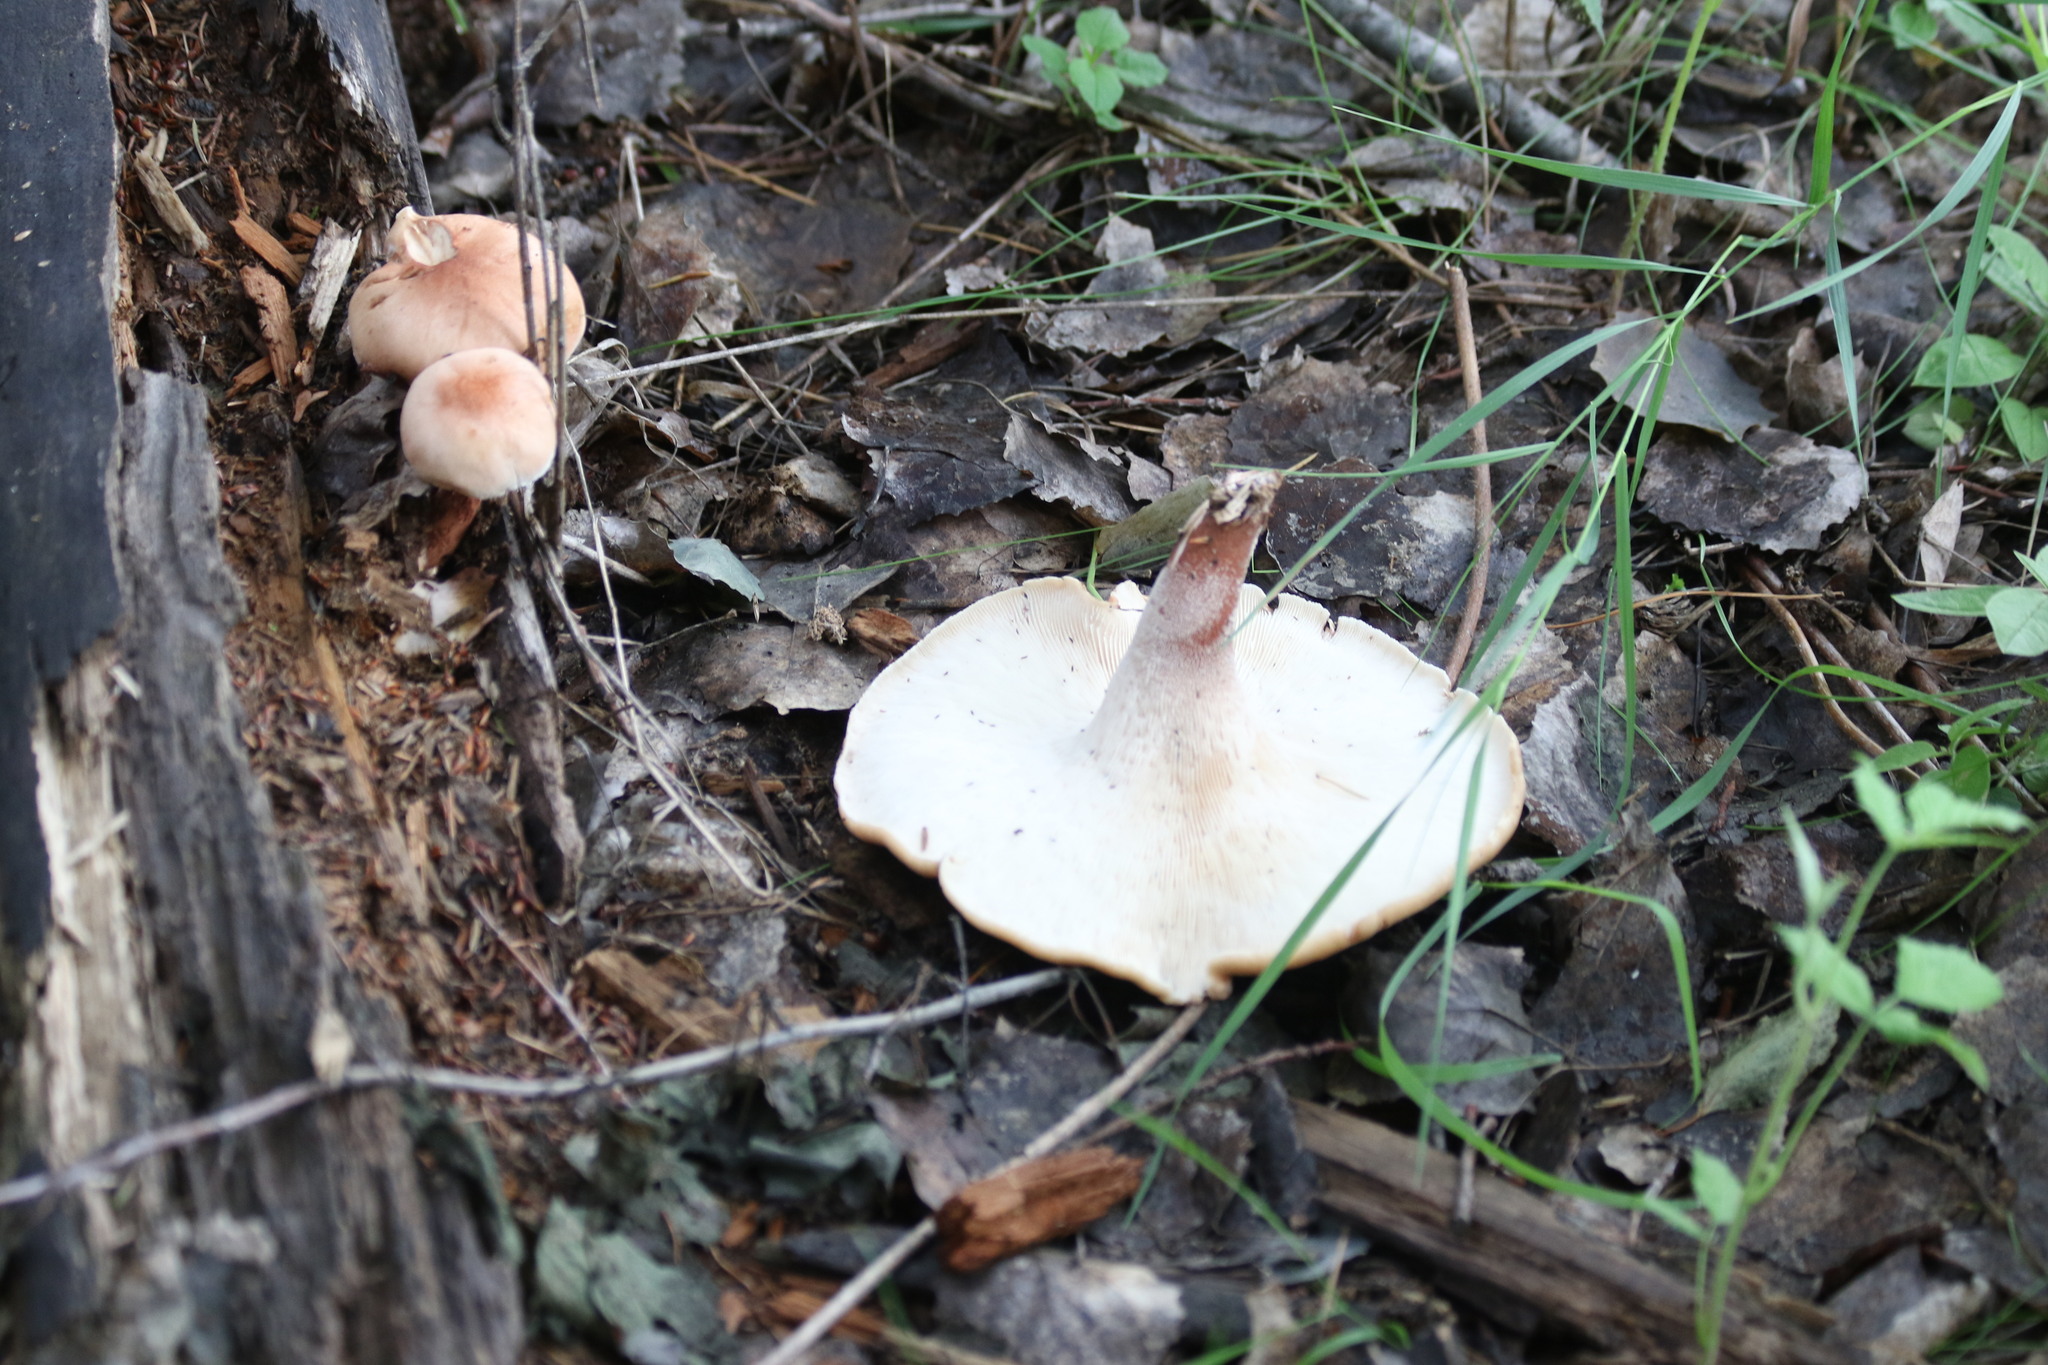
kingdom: Fungi
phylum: Basidiomycota
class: Agaricomycetes
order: Gloeophyllales
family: Gloeophyllaceae
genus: Neolentinus
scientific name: Neolentinus cyathiformis
